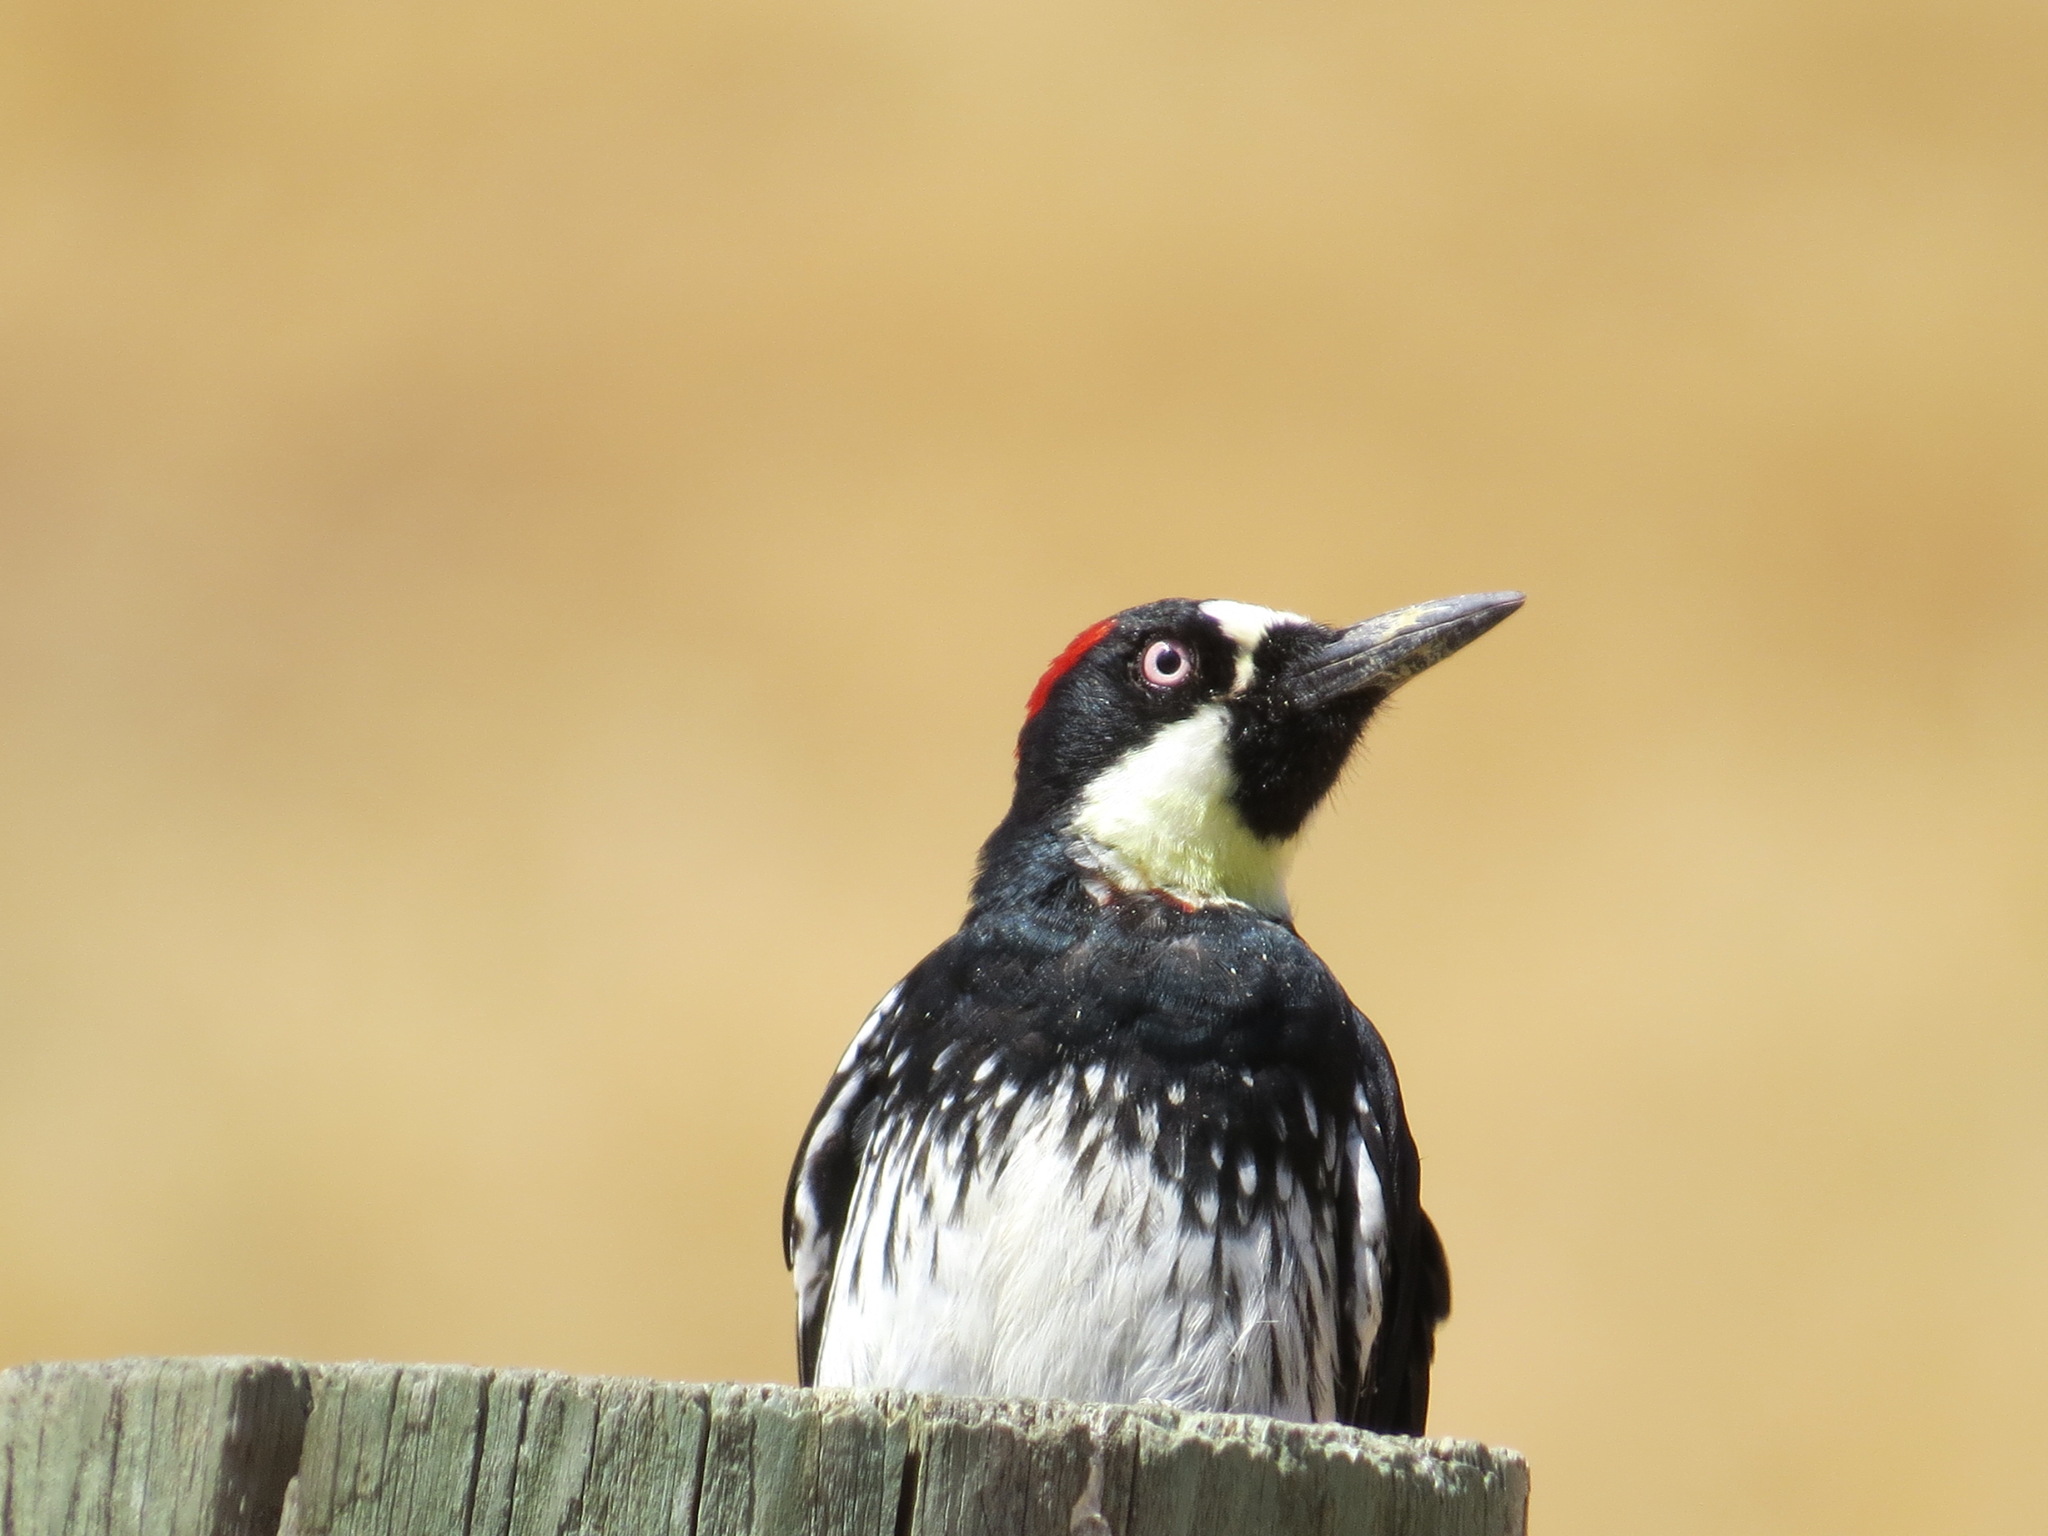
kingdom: Animalia
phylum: Chordata
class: Aves
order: Piciformes
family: Picidae
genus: Melanerpes
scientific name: Melanerpes formicivorus
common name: Acorn woodpecker
